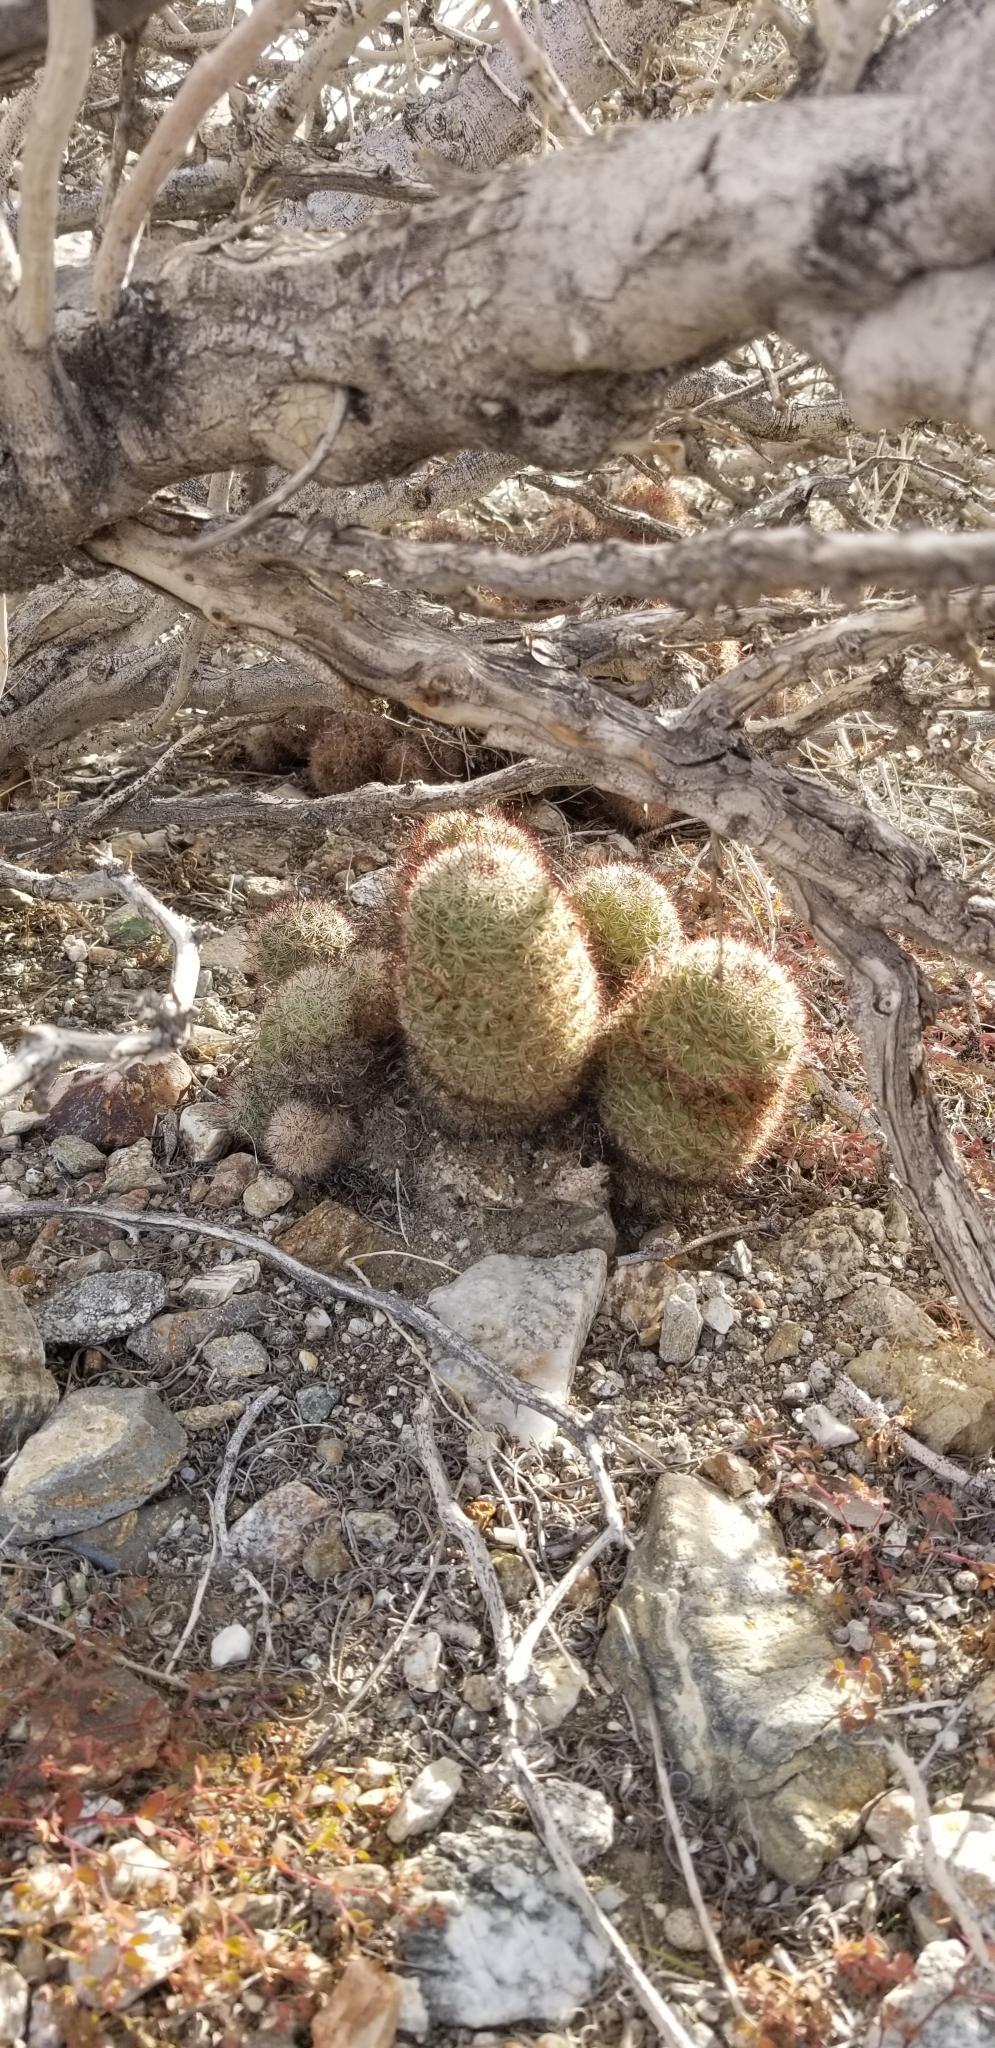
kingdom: Plantae
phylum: Tracheophyta
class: Magnoliopsida
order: Caryophyllales
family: Cactaceae
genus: Cochemiea
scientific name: Cochemiea dioica
